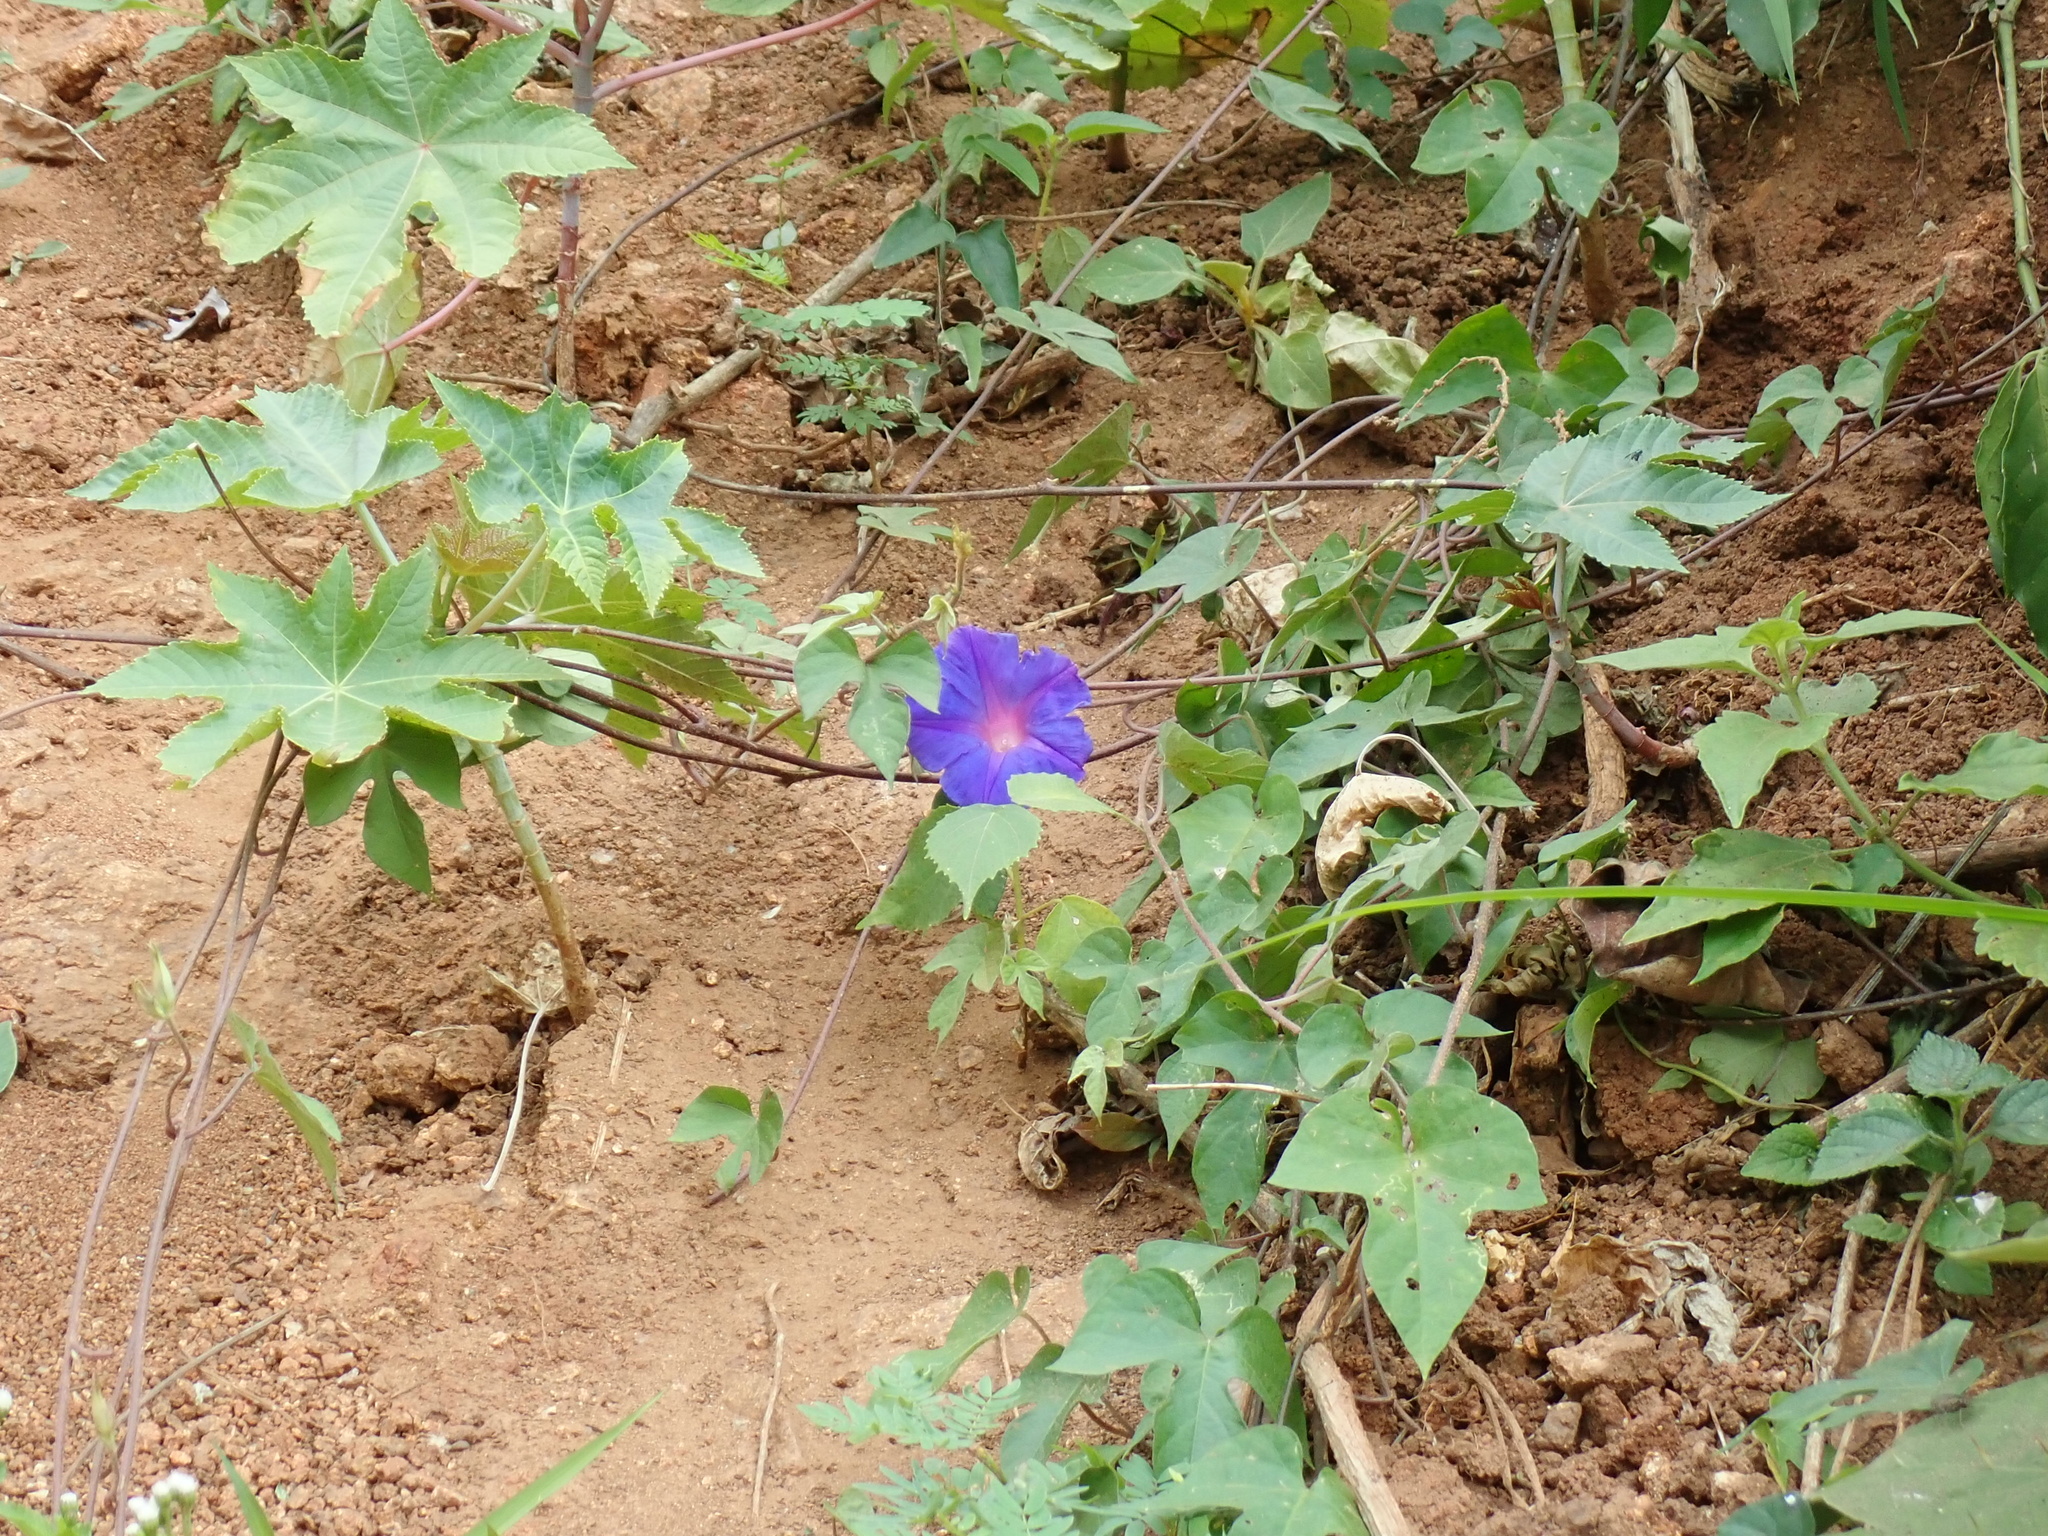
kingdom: Plantae
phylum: Tracheophyta
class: Magnoliopsida
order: Solanales
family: Convolvulaceae
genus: Ipomoea
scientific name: Ipomoea indica
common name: Blue dawnflower
